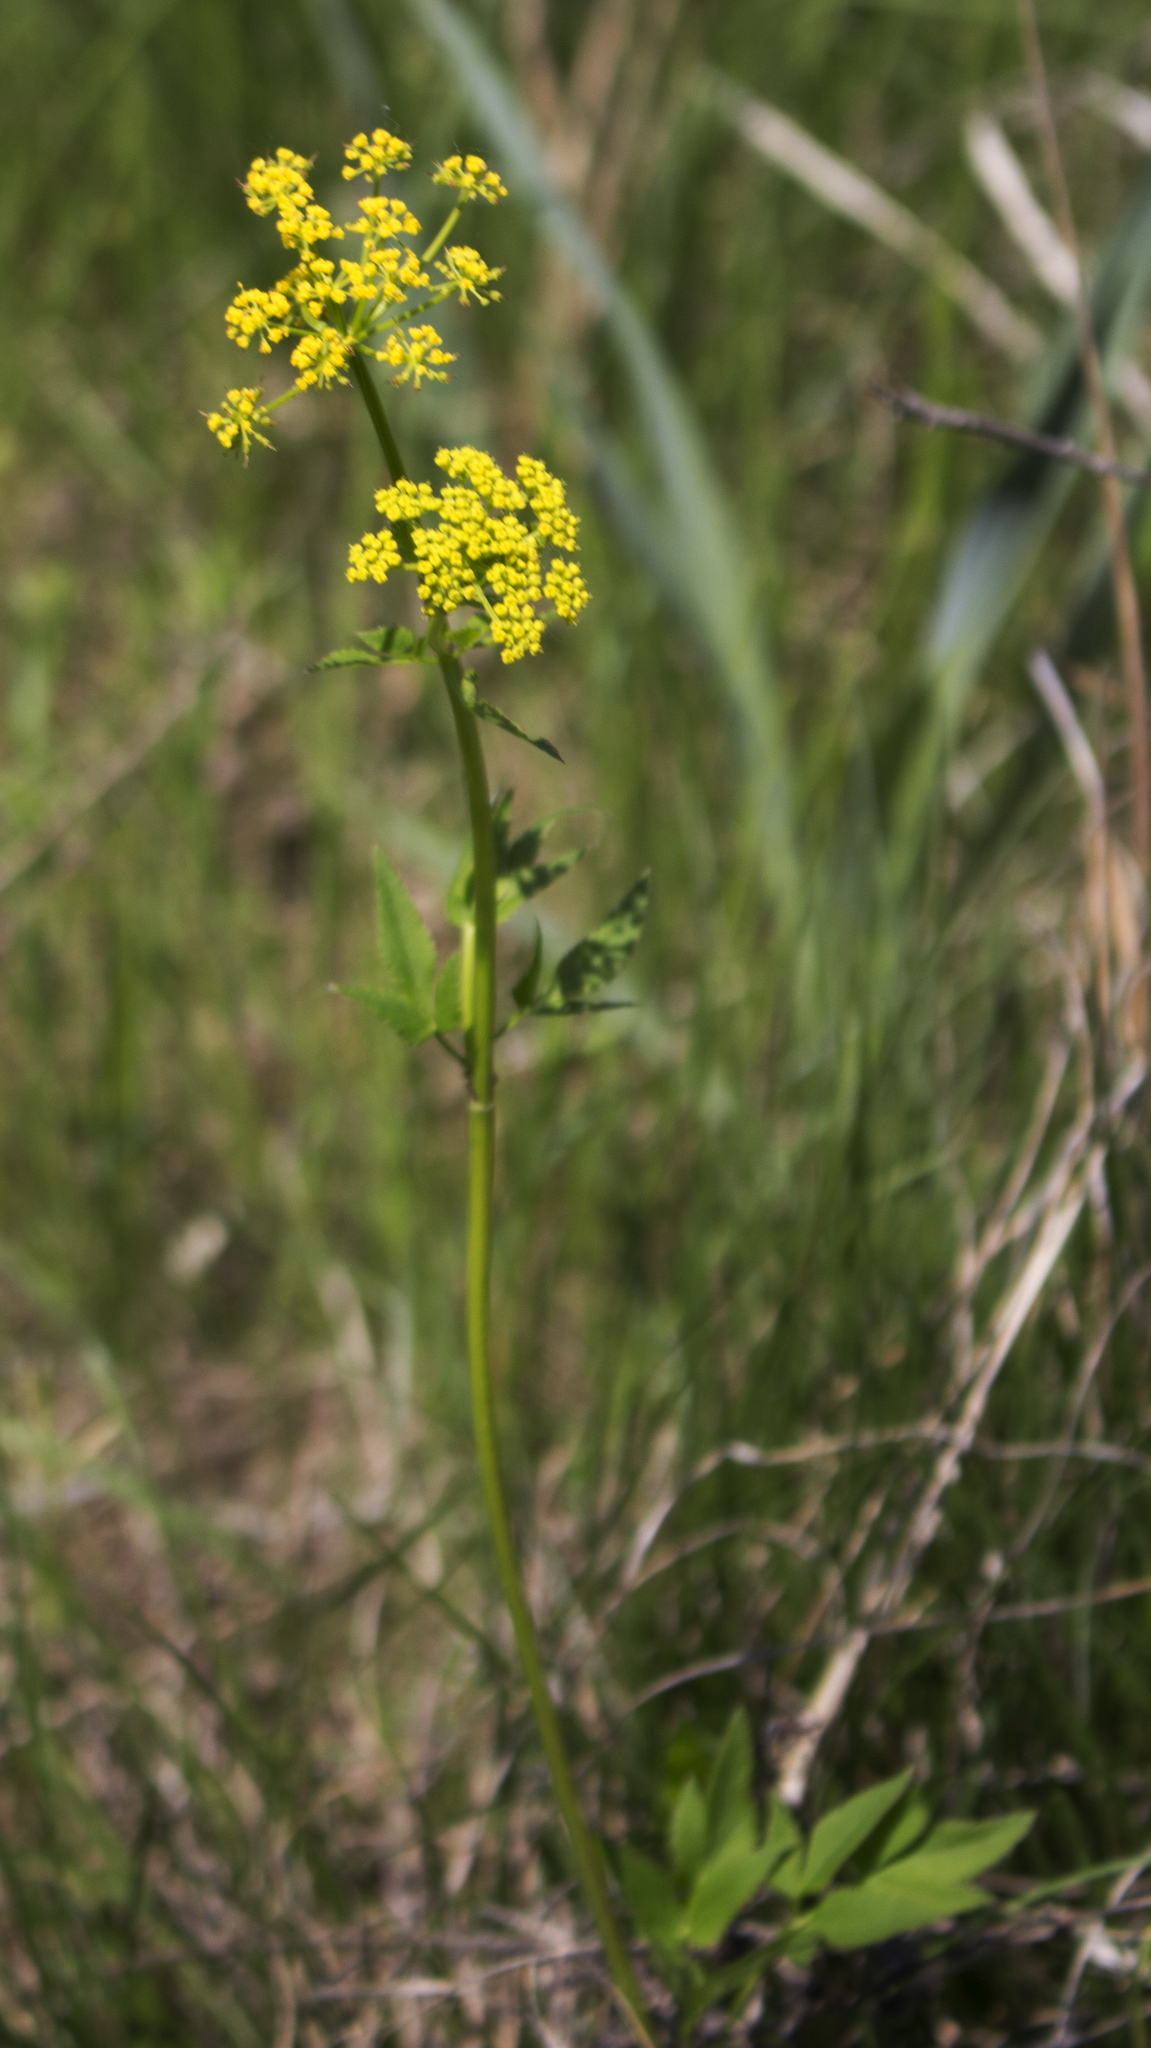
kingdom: Plantae
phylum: Tracheophyta
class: Magnoliopsida
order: Apiales
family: Apiaceae
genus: Zizia
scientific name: Zizia aurea
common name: Golden alexanders
